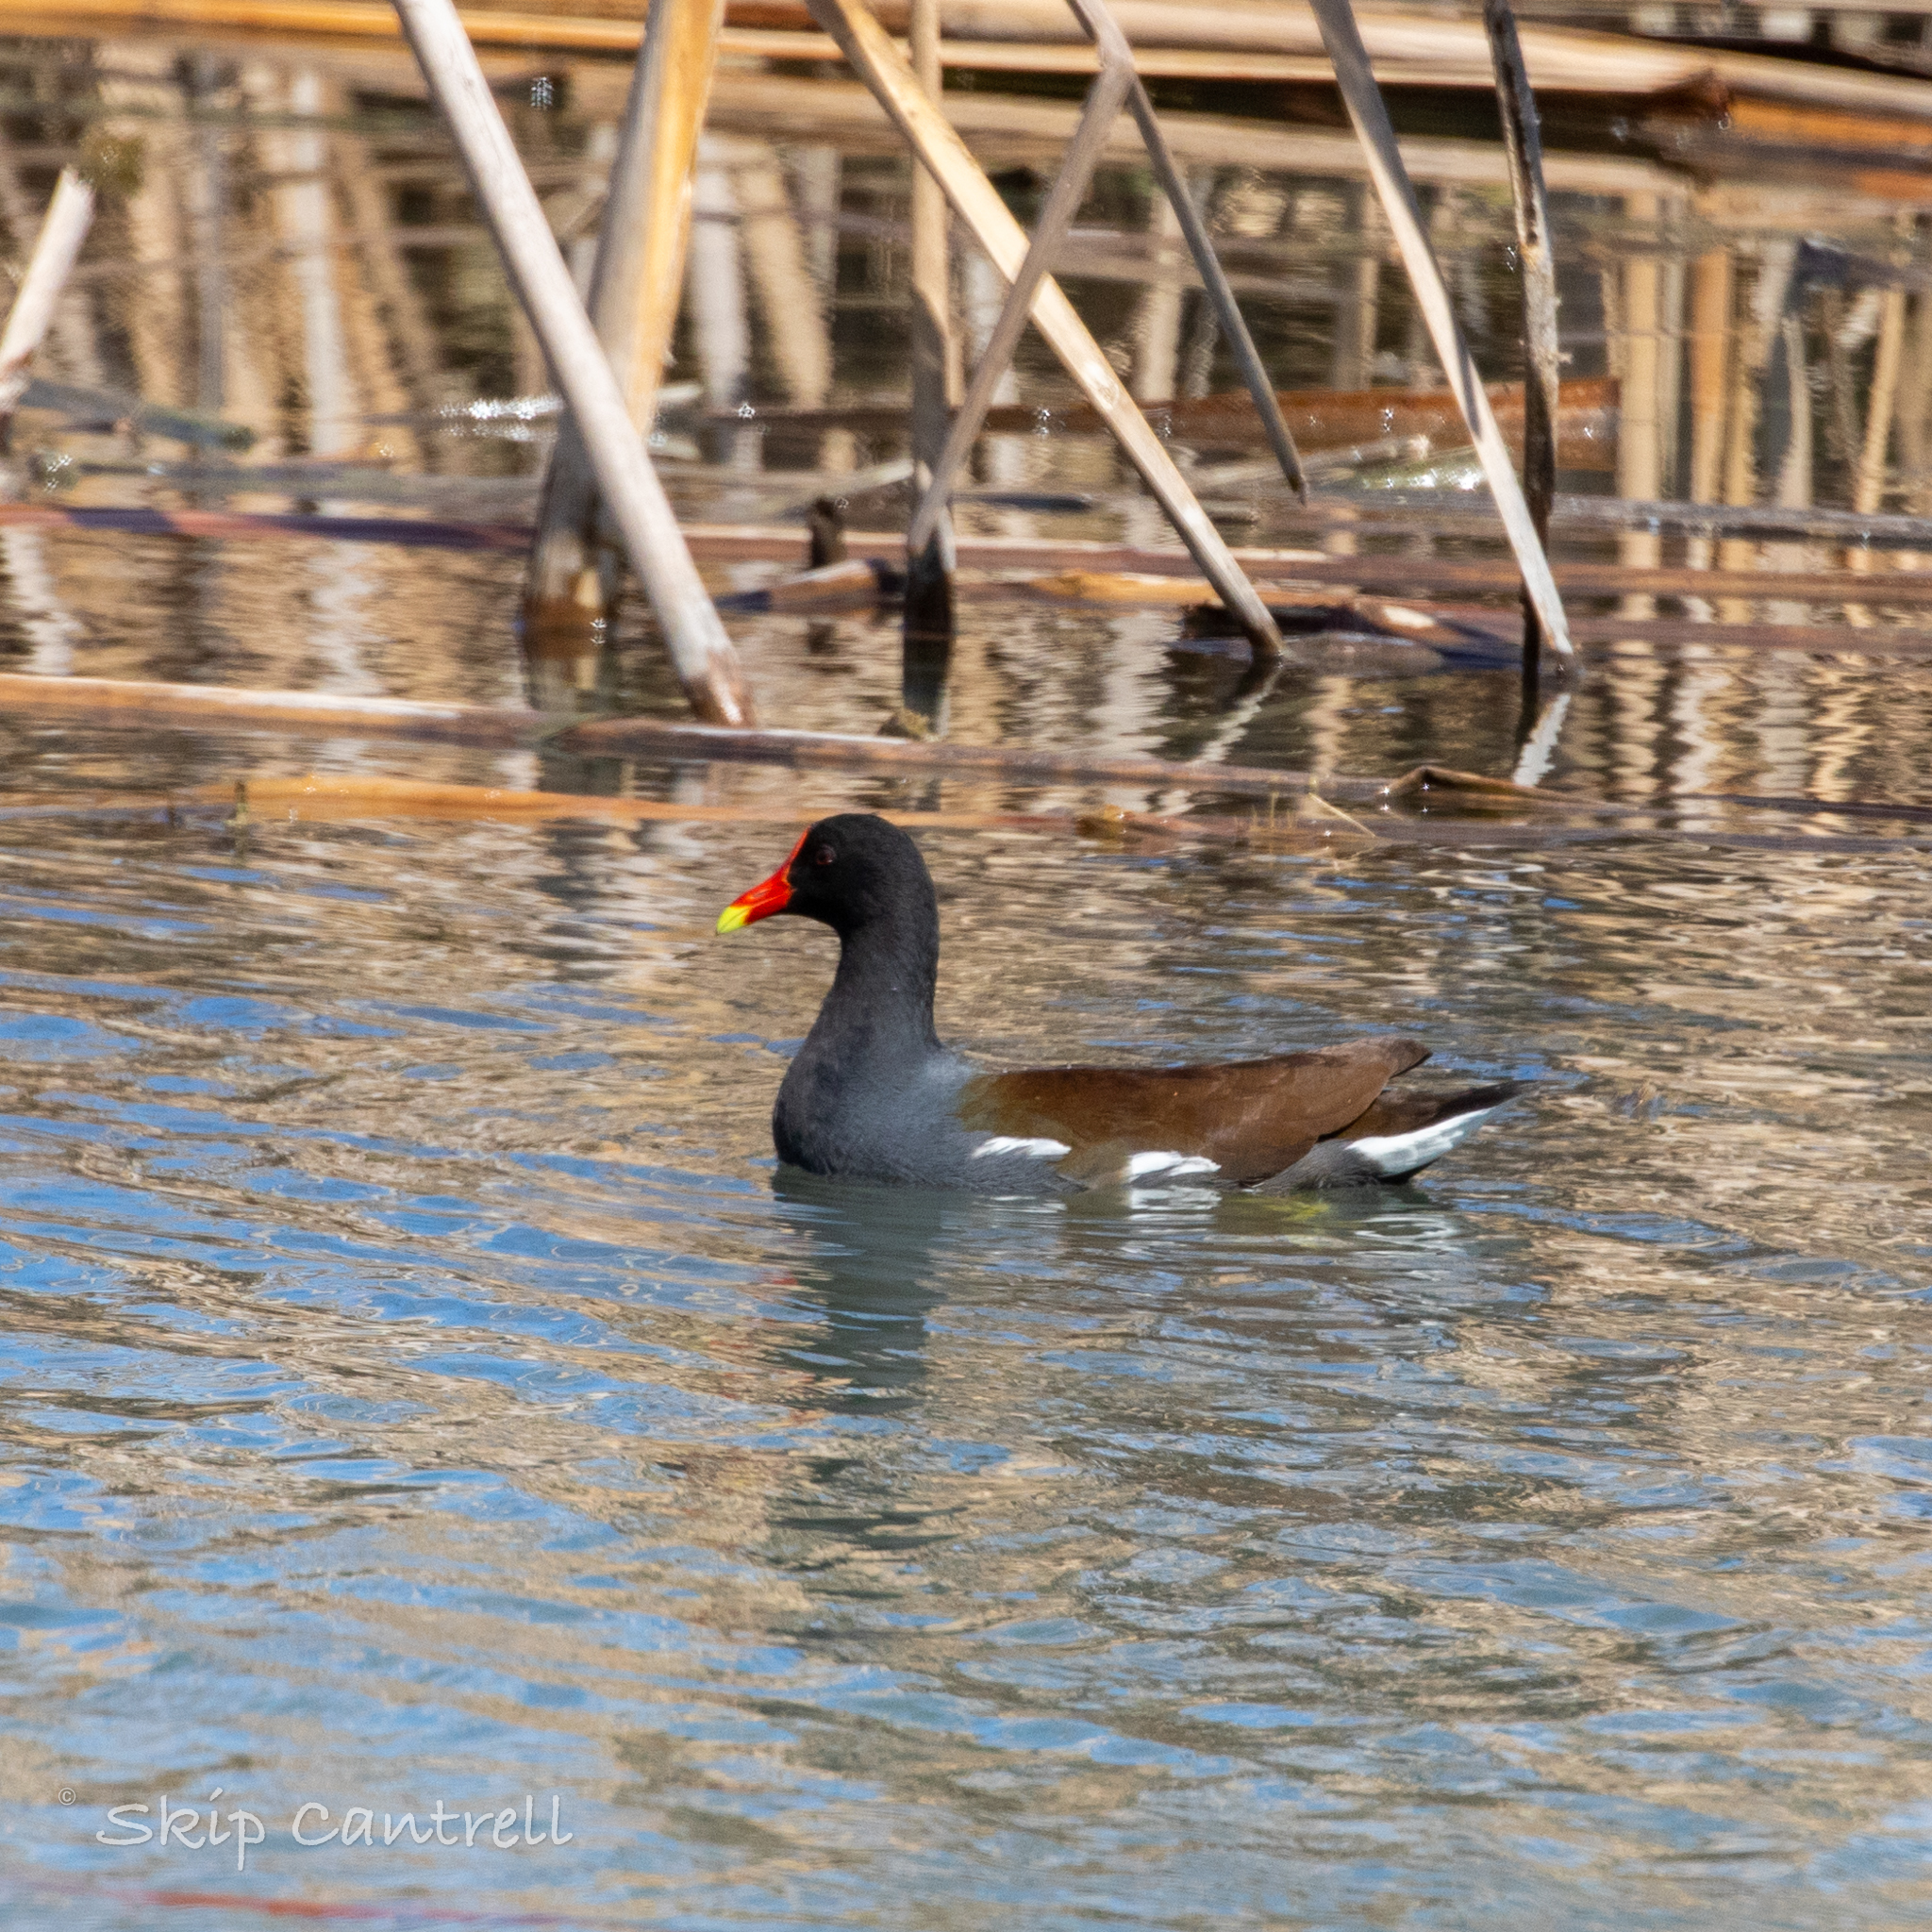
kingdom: Animalia
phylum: Chordata
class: Aves
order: Gruiformes
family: Rallidae
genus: Gallinula
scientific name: Gallinula chloropus
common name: Common moorhen
